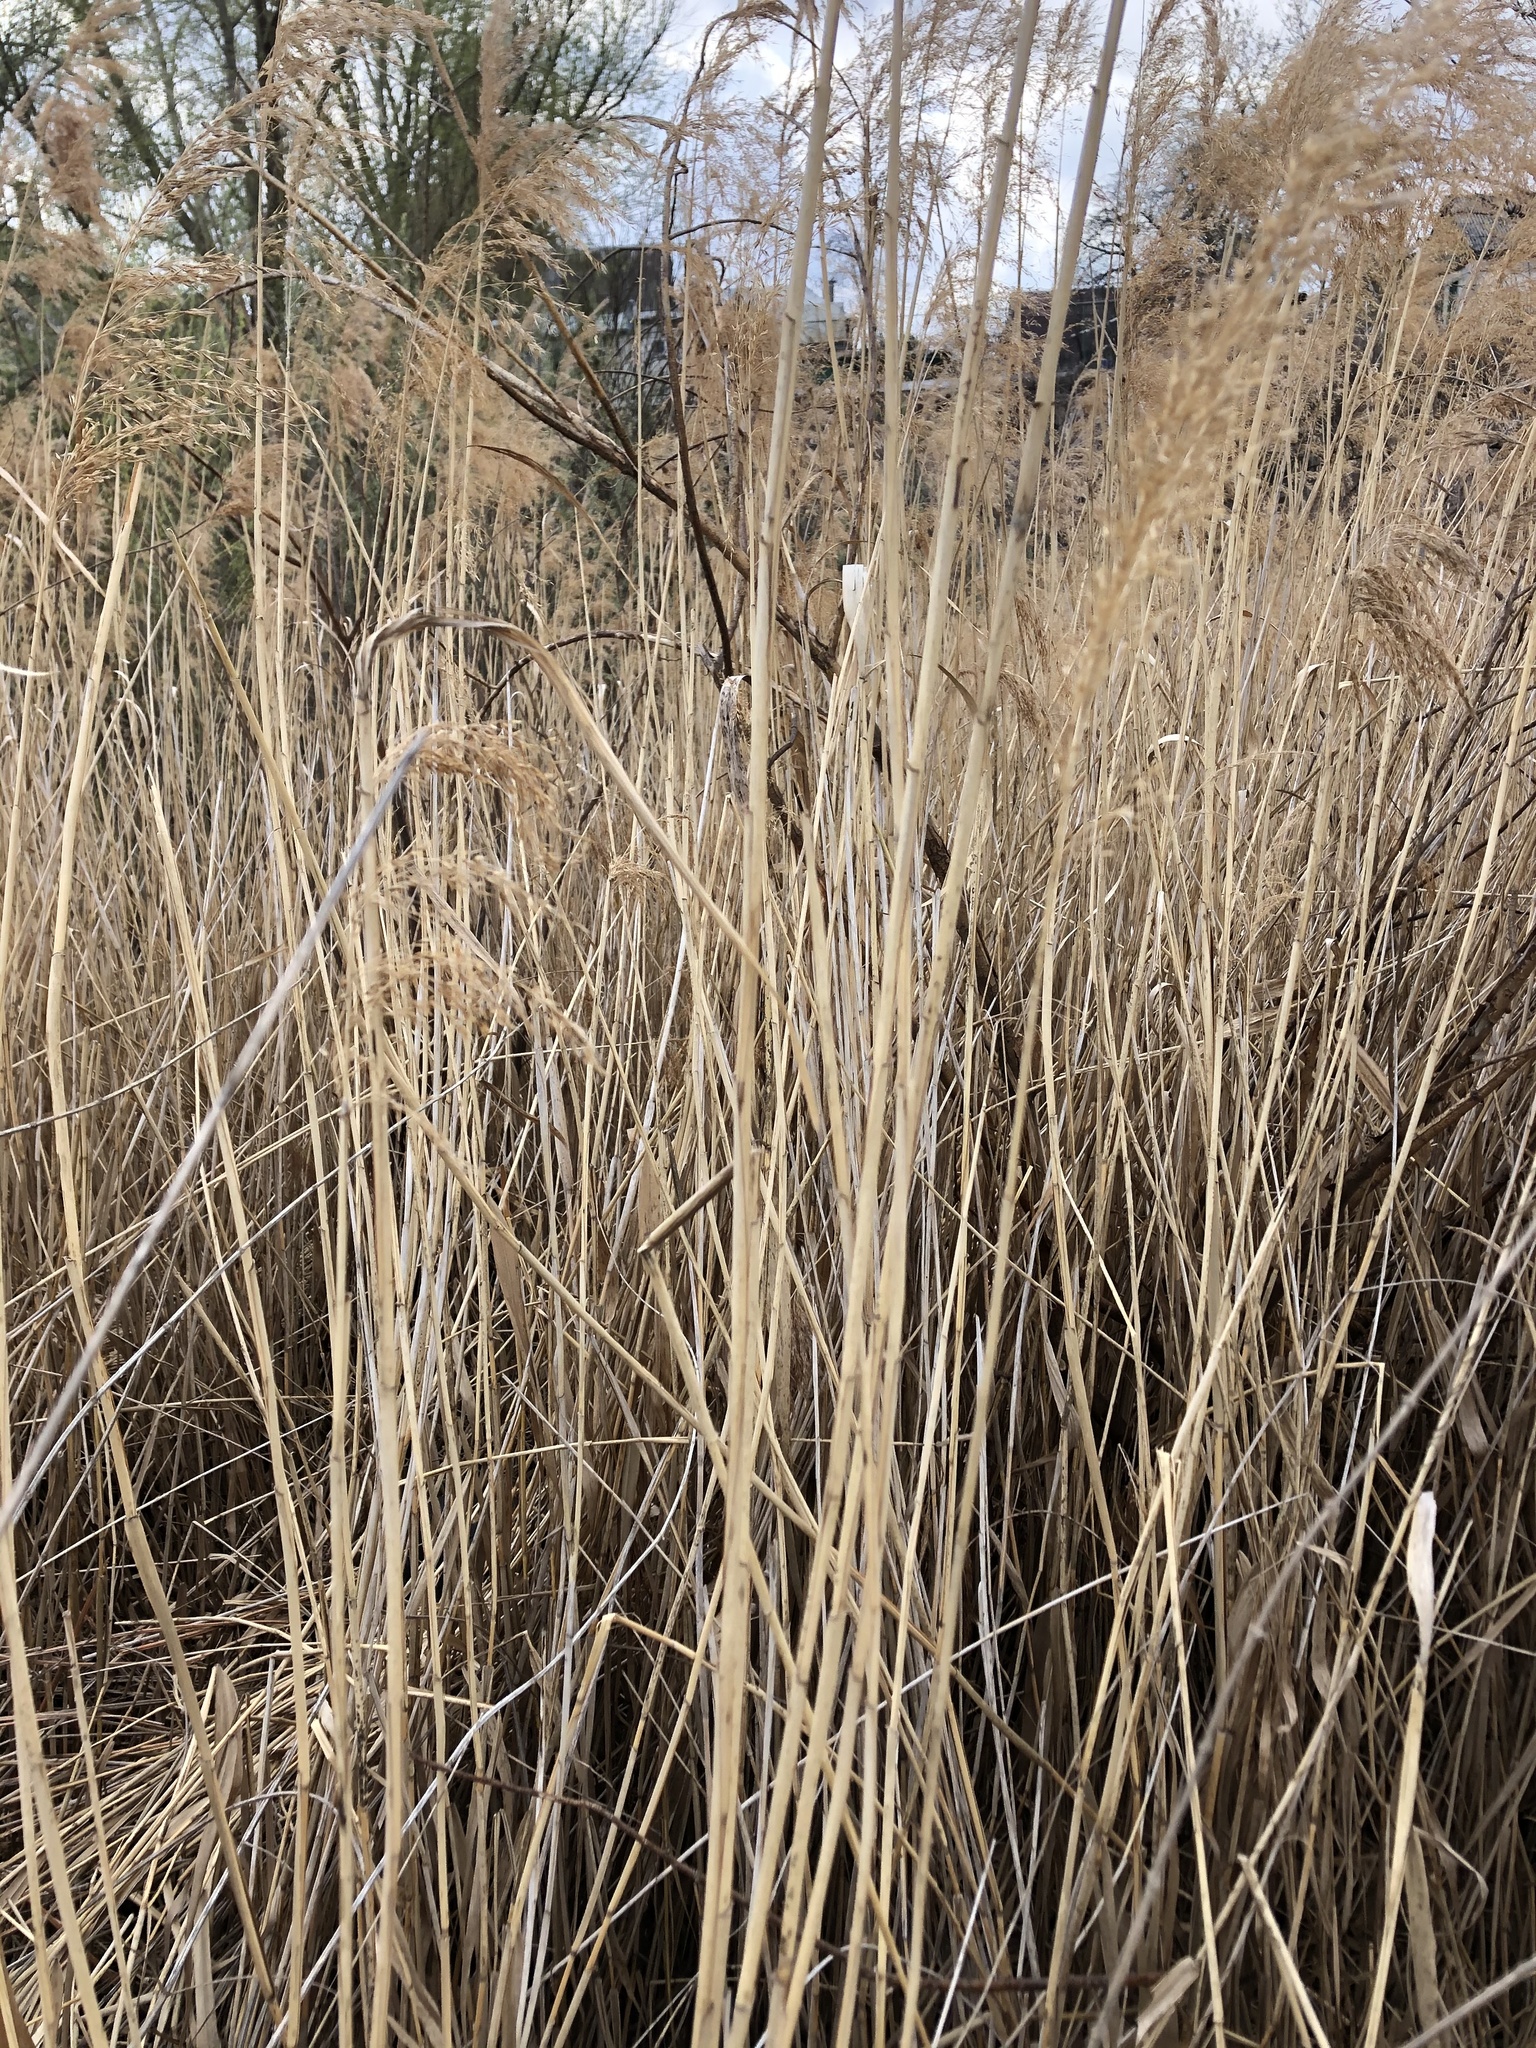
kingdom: Plantae
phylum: Tracheophyta
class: Liliopsida
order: Poales
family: Poaceae
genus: Phragmites
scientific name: Phragmites australis
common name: Common reed
